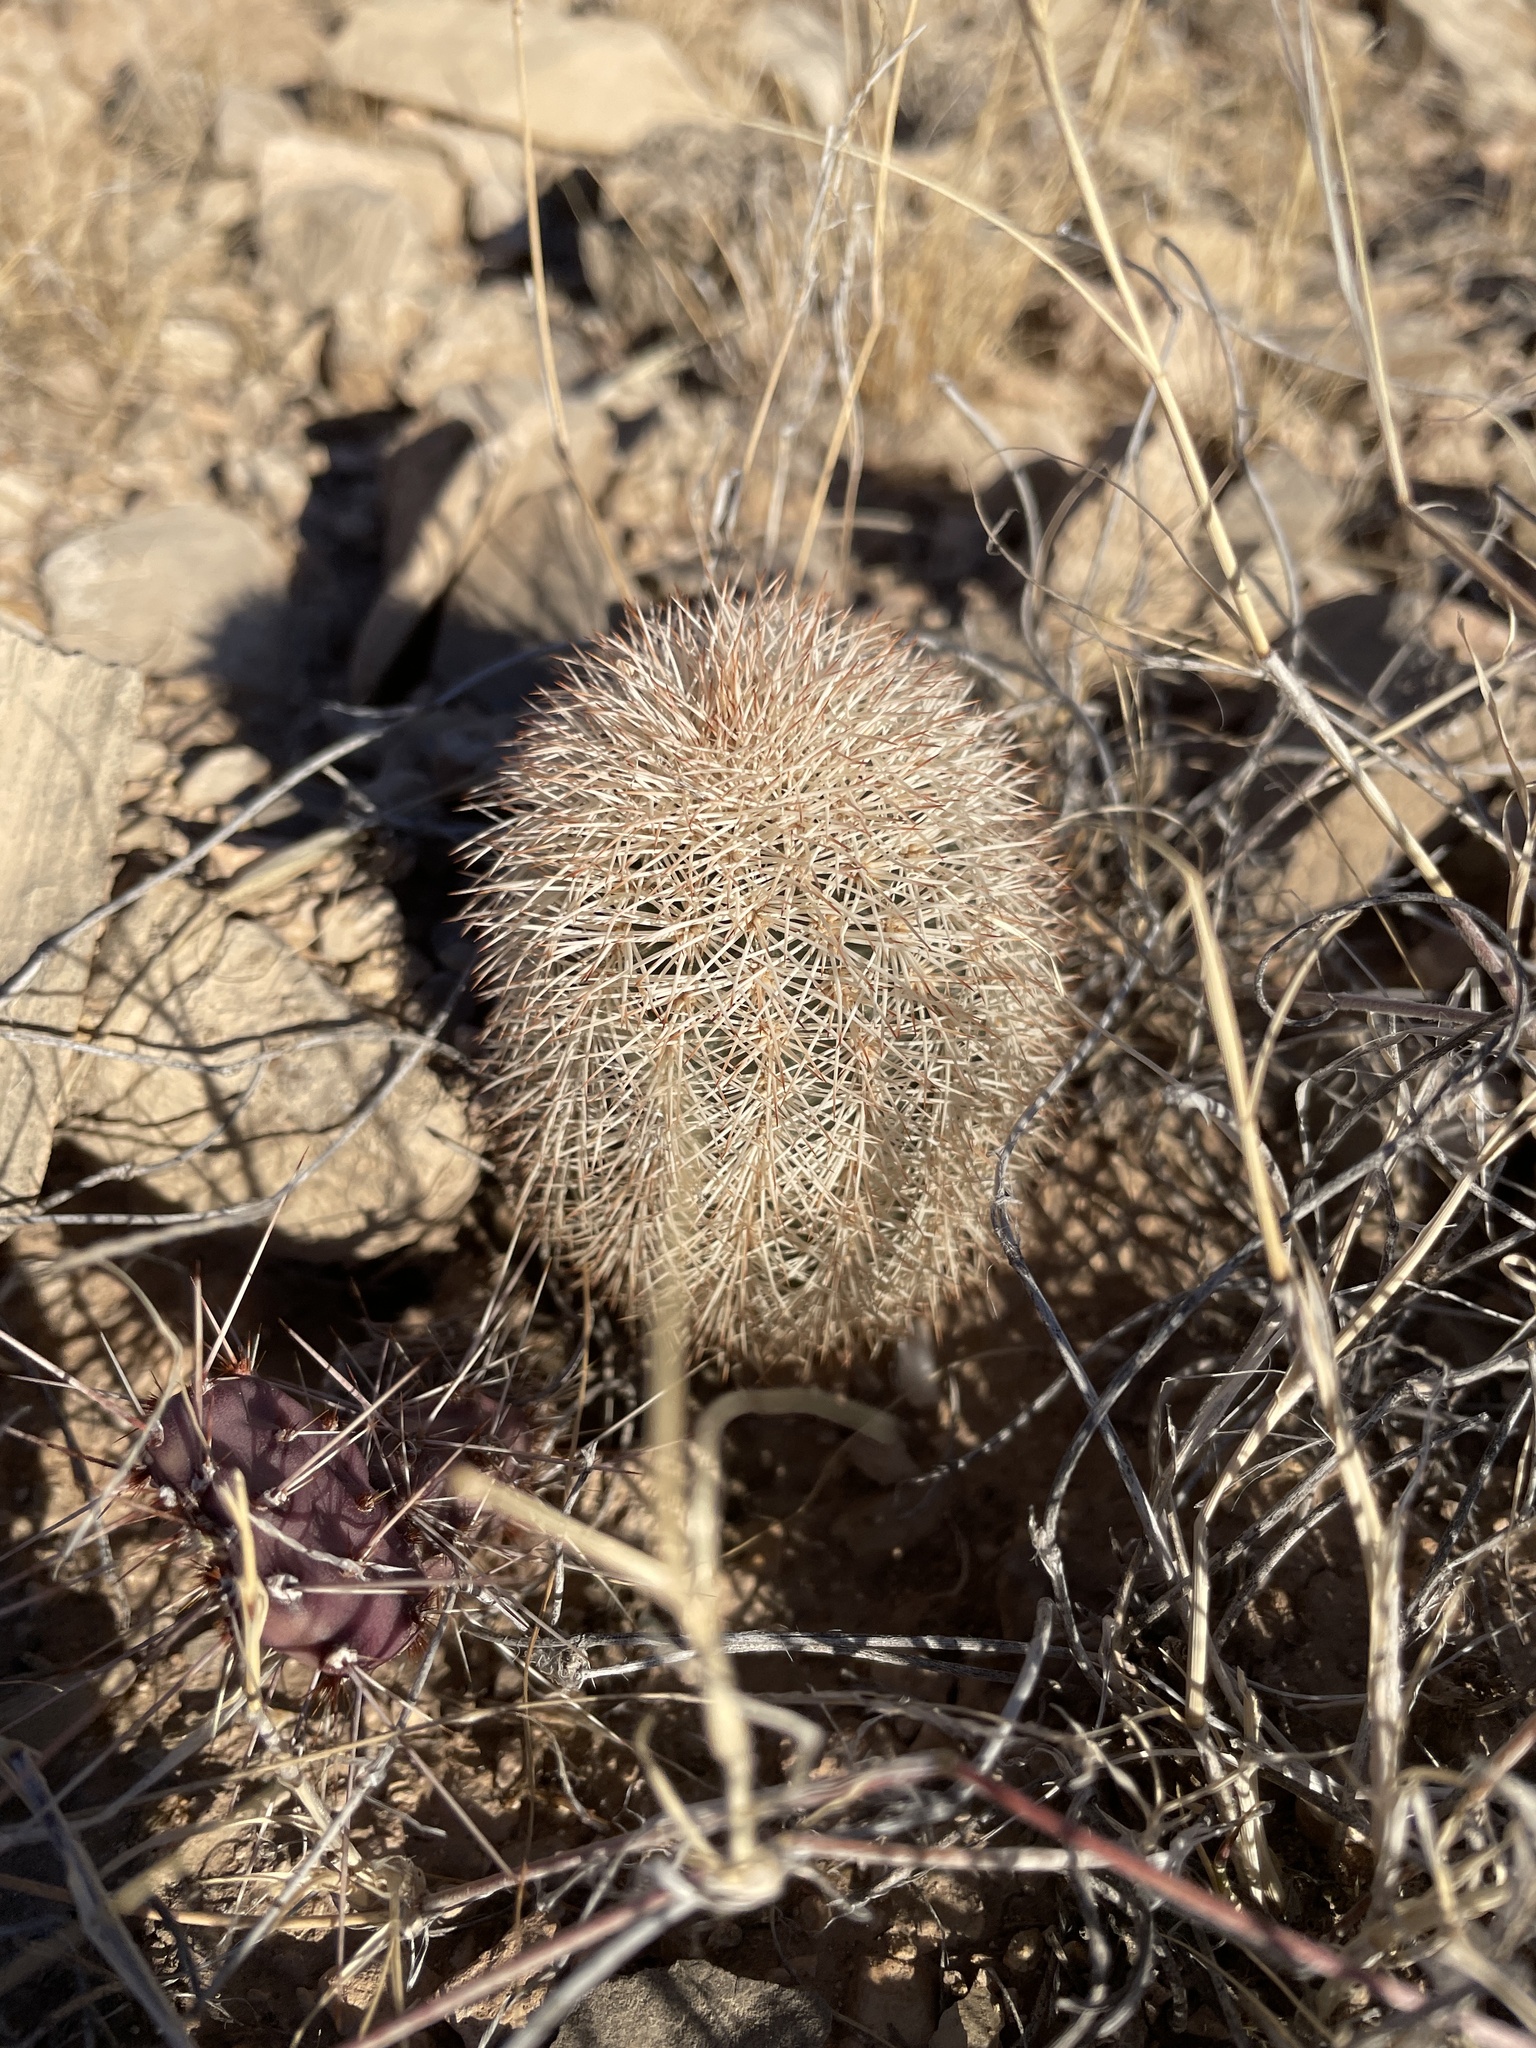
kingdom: Plantae
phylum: Tracheophyta
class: Magnoliopsida
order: Caryophyllales
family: Cactaceae
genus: Echinocereus
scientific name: Echinocereus dasyacanthus
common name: Spiny hedgehog cactus
